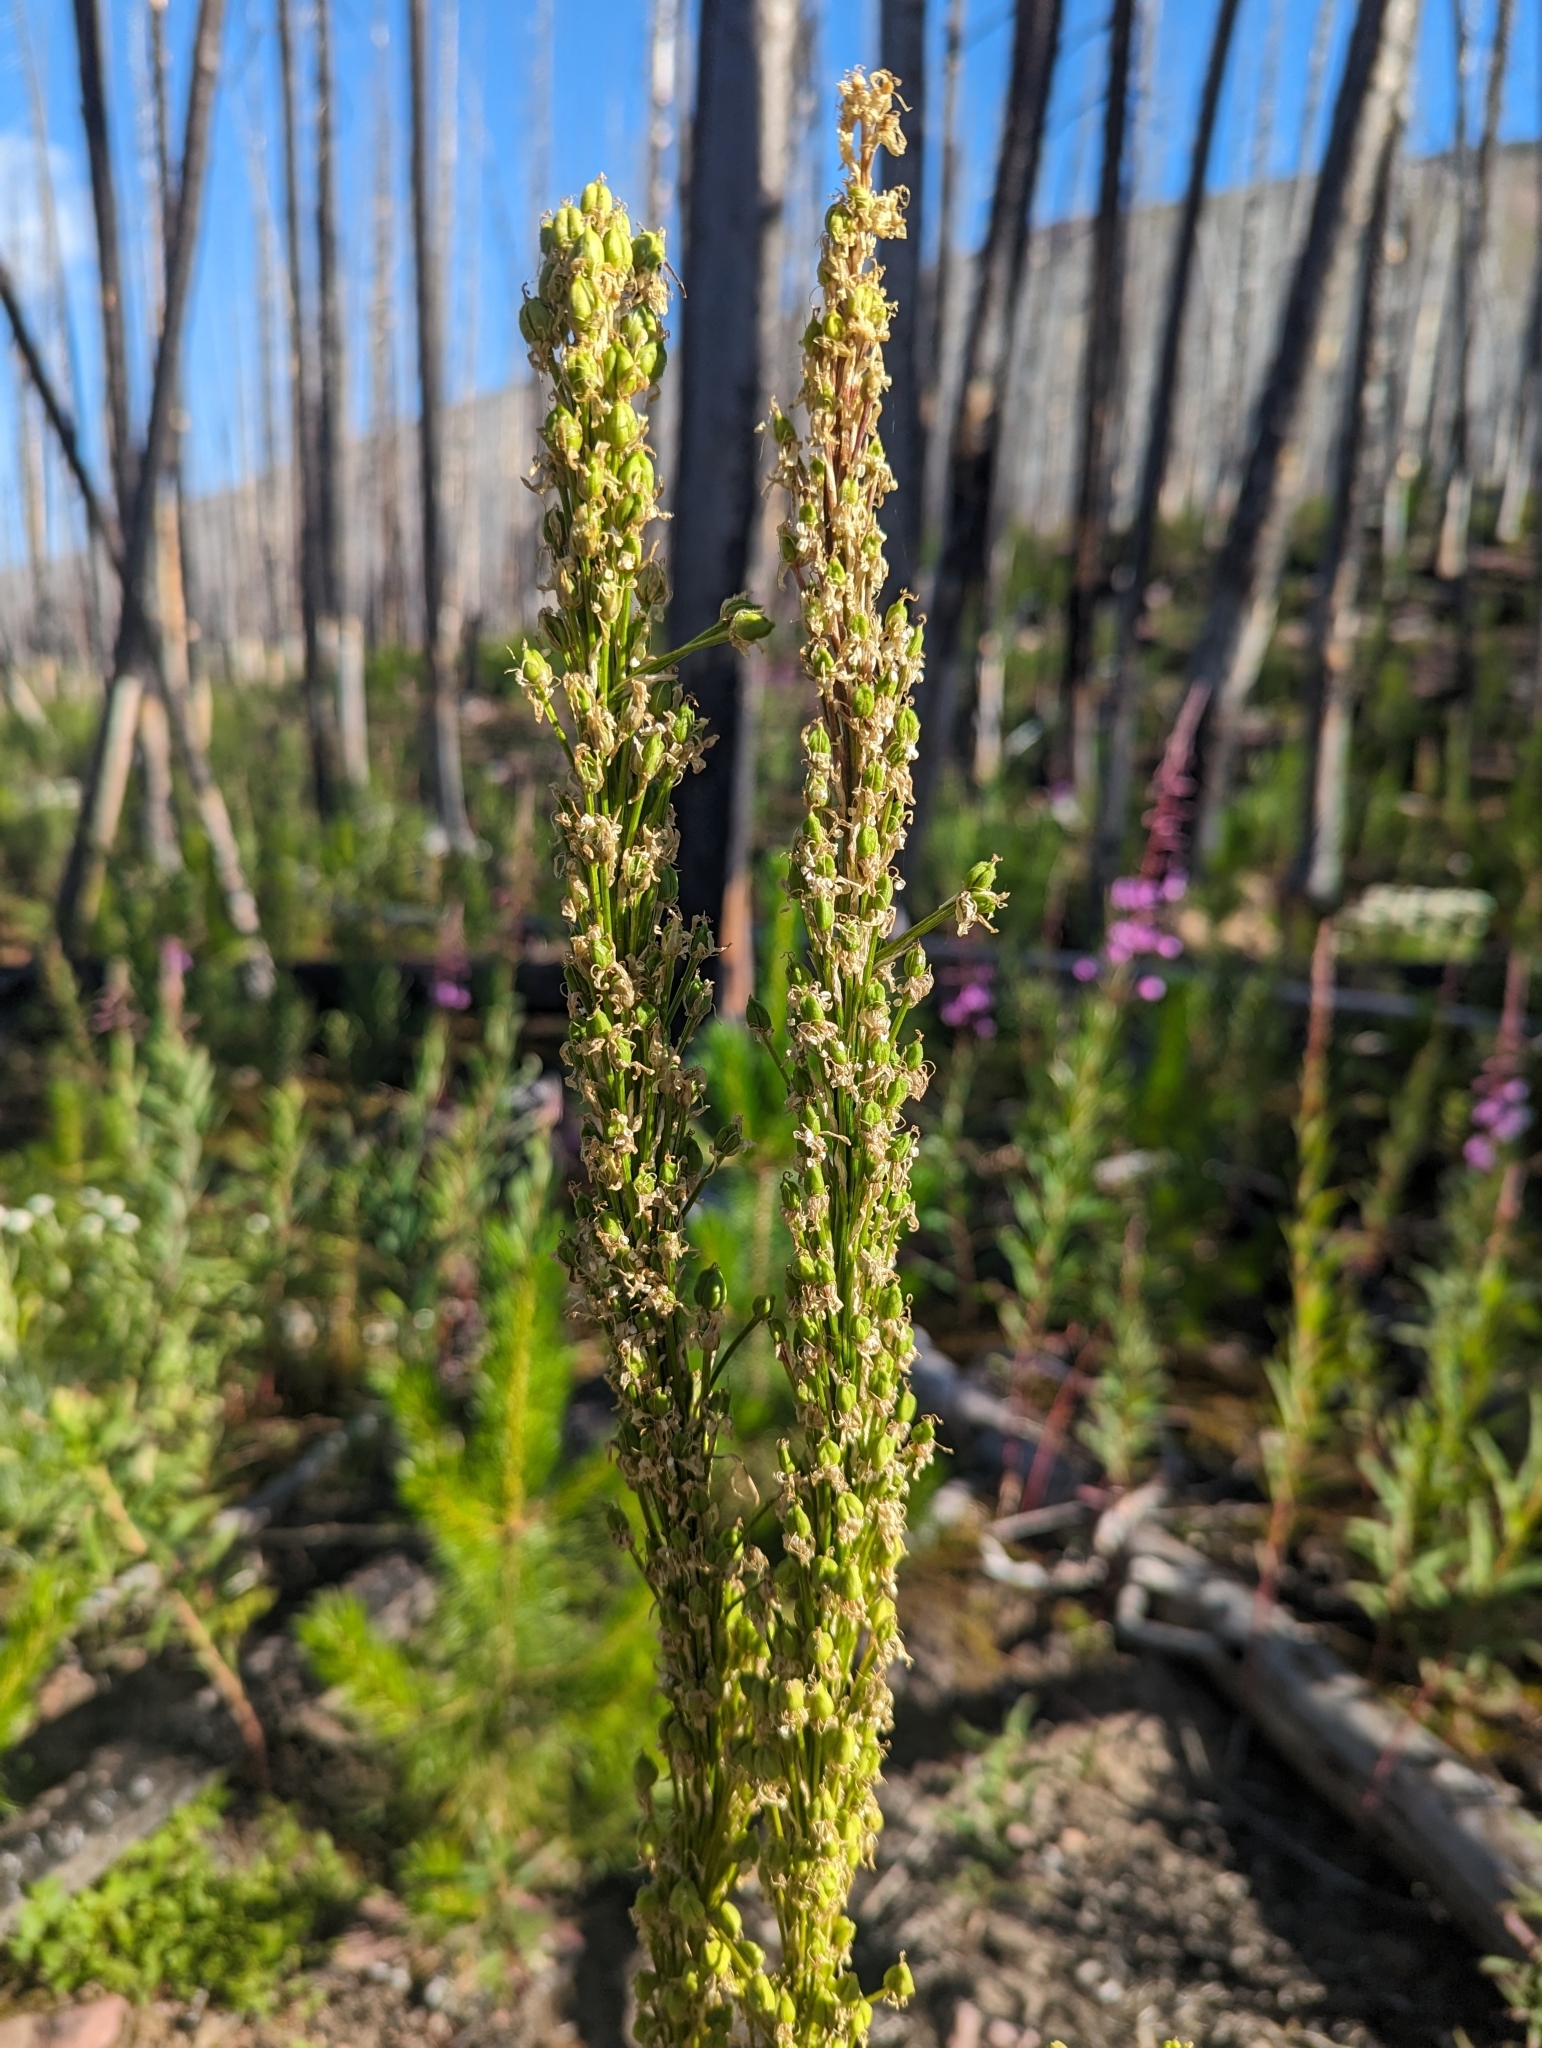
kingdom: Plantae
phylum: Tracheophyta
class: Liliopsida
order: Liliales
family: Melanthiaceae
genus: Xerophyllum
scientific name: Xerophyllum tenax
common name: Bear-grass
